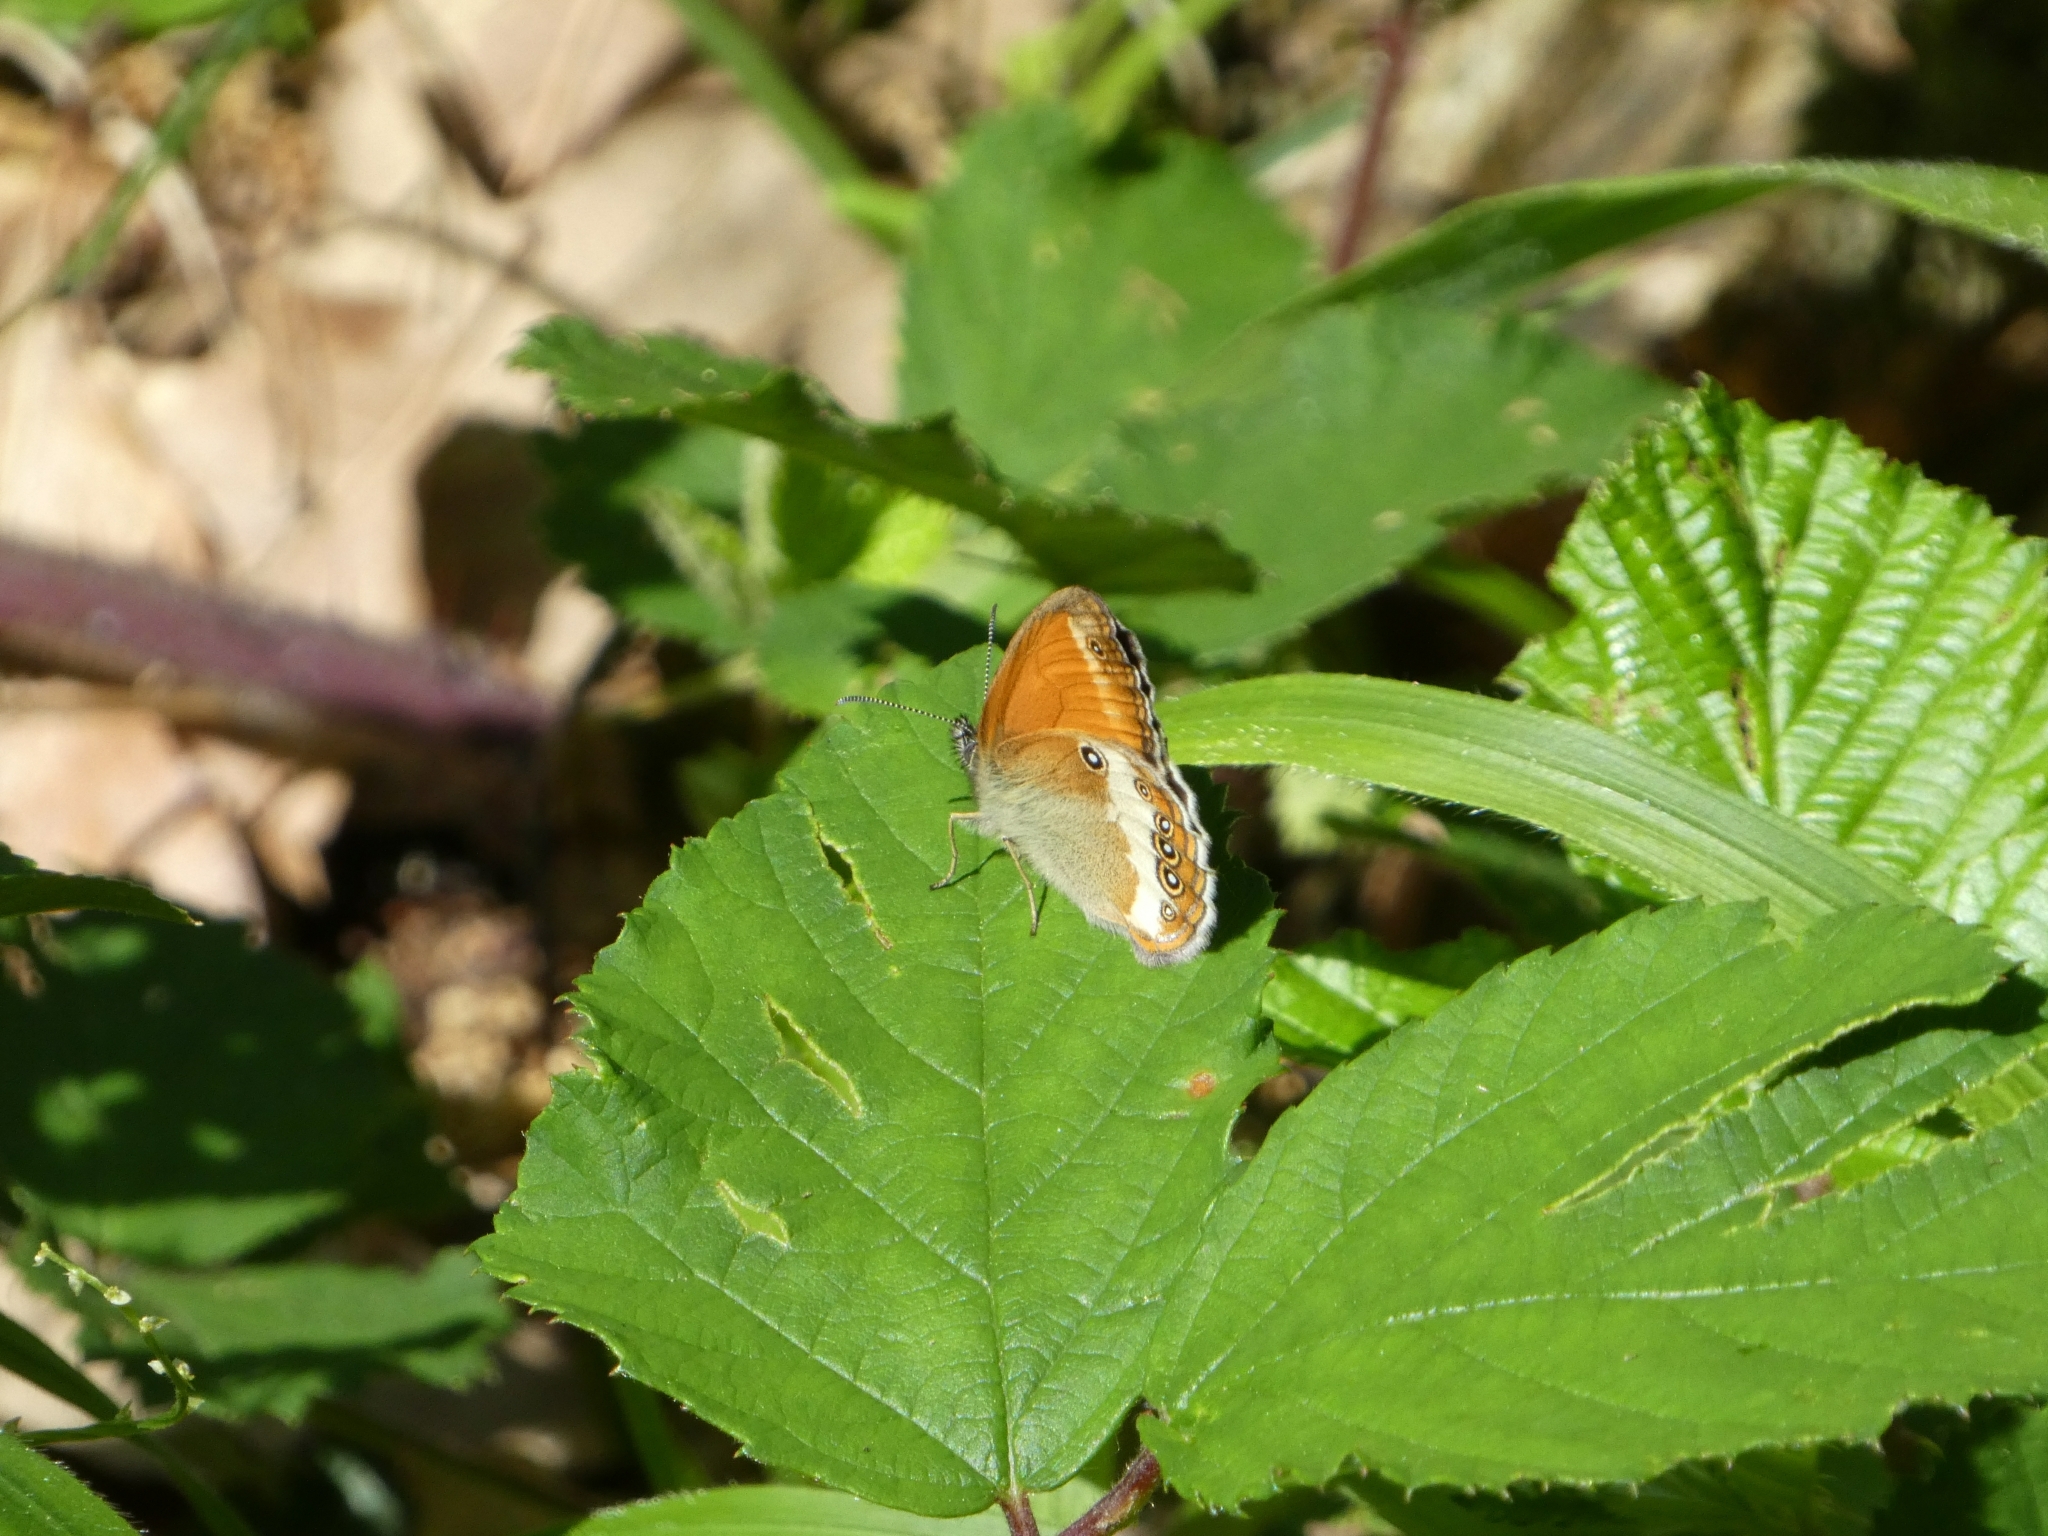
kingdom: Animalia
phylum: Arthropoda
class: Insecta
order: Lepidoptera
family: Nymphalidae
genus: Coenonympha
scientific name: Coenonympha arcania
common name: Pearly heath
